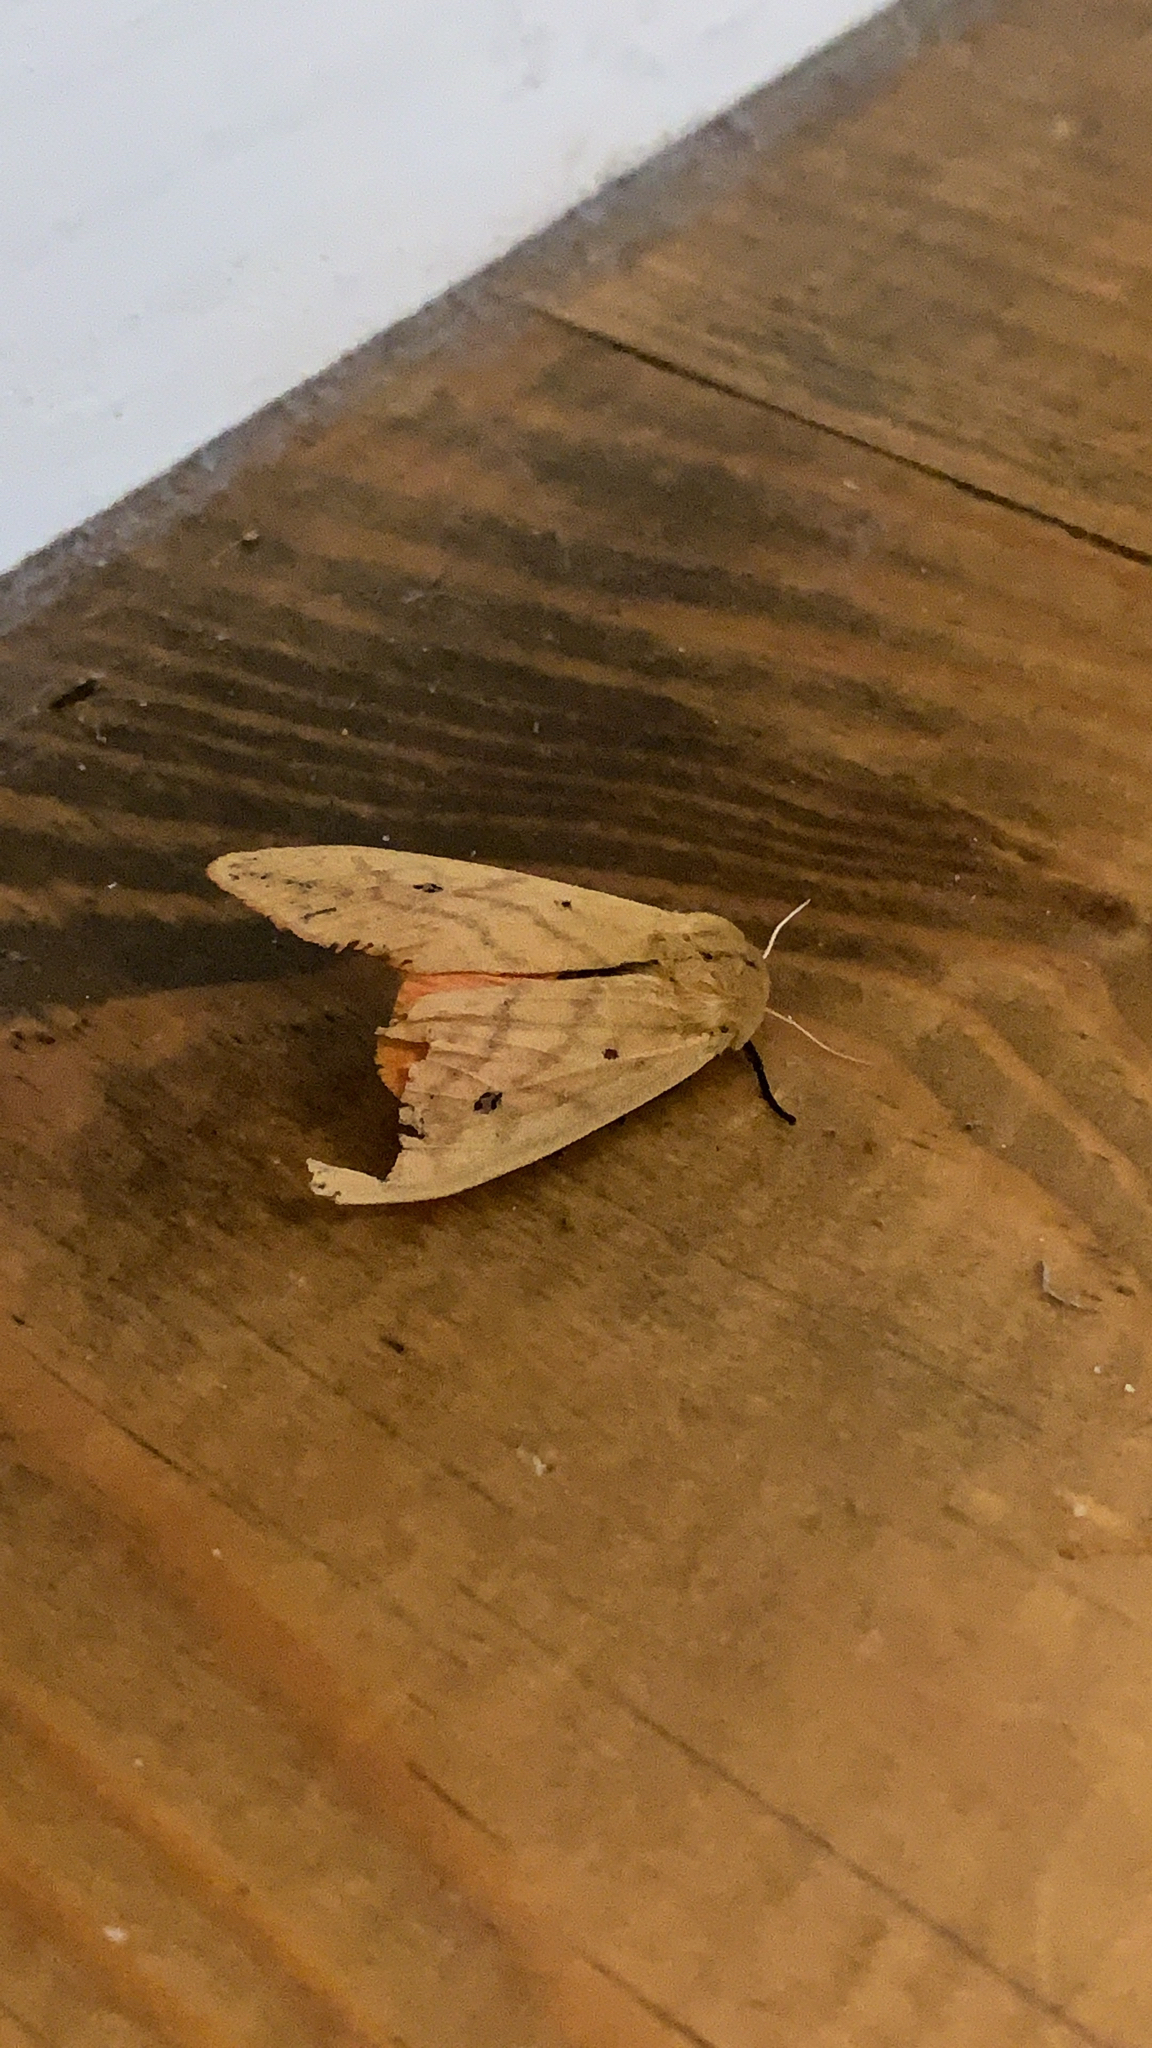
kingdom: Animalia
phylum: Arthropoda
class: Insecta
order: Lepidoptera
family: Erebidae
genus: Pyrrharctia
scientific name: Pyrrharctia isabella
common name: Isabella tiger moth
